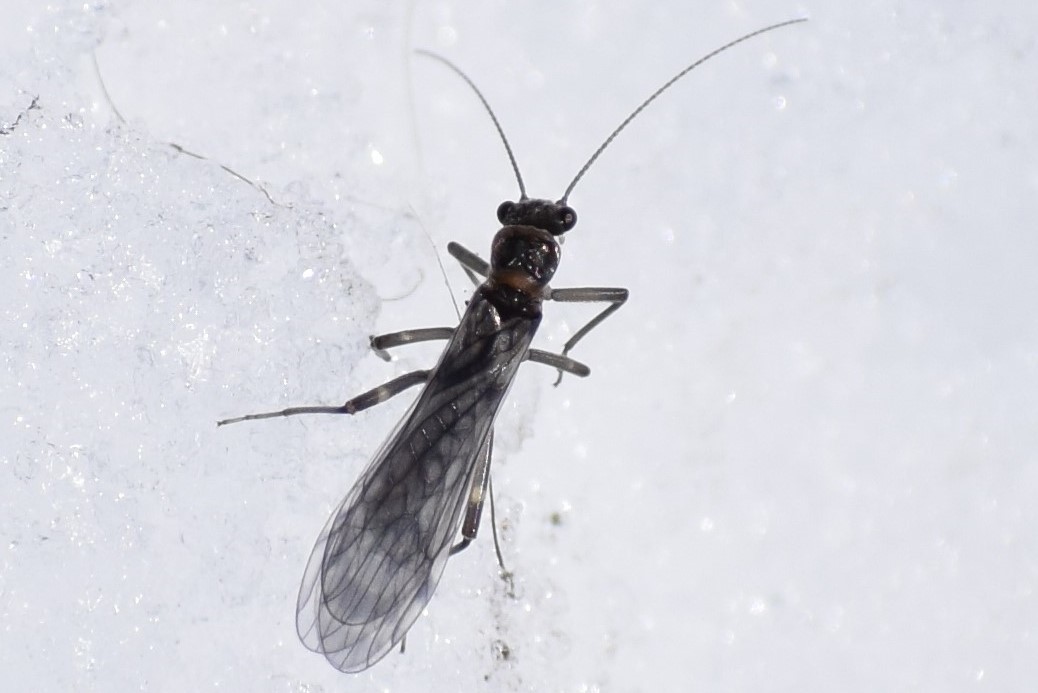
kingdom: Animalia
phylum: Arthropoda
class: Insecta
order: Plecoptera
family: Nemouridae
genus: Zapada
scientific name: Zapada cinctipes
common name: Common forestfly
